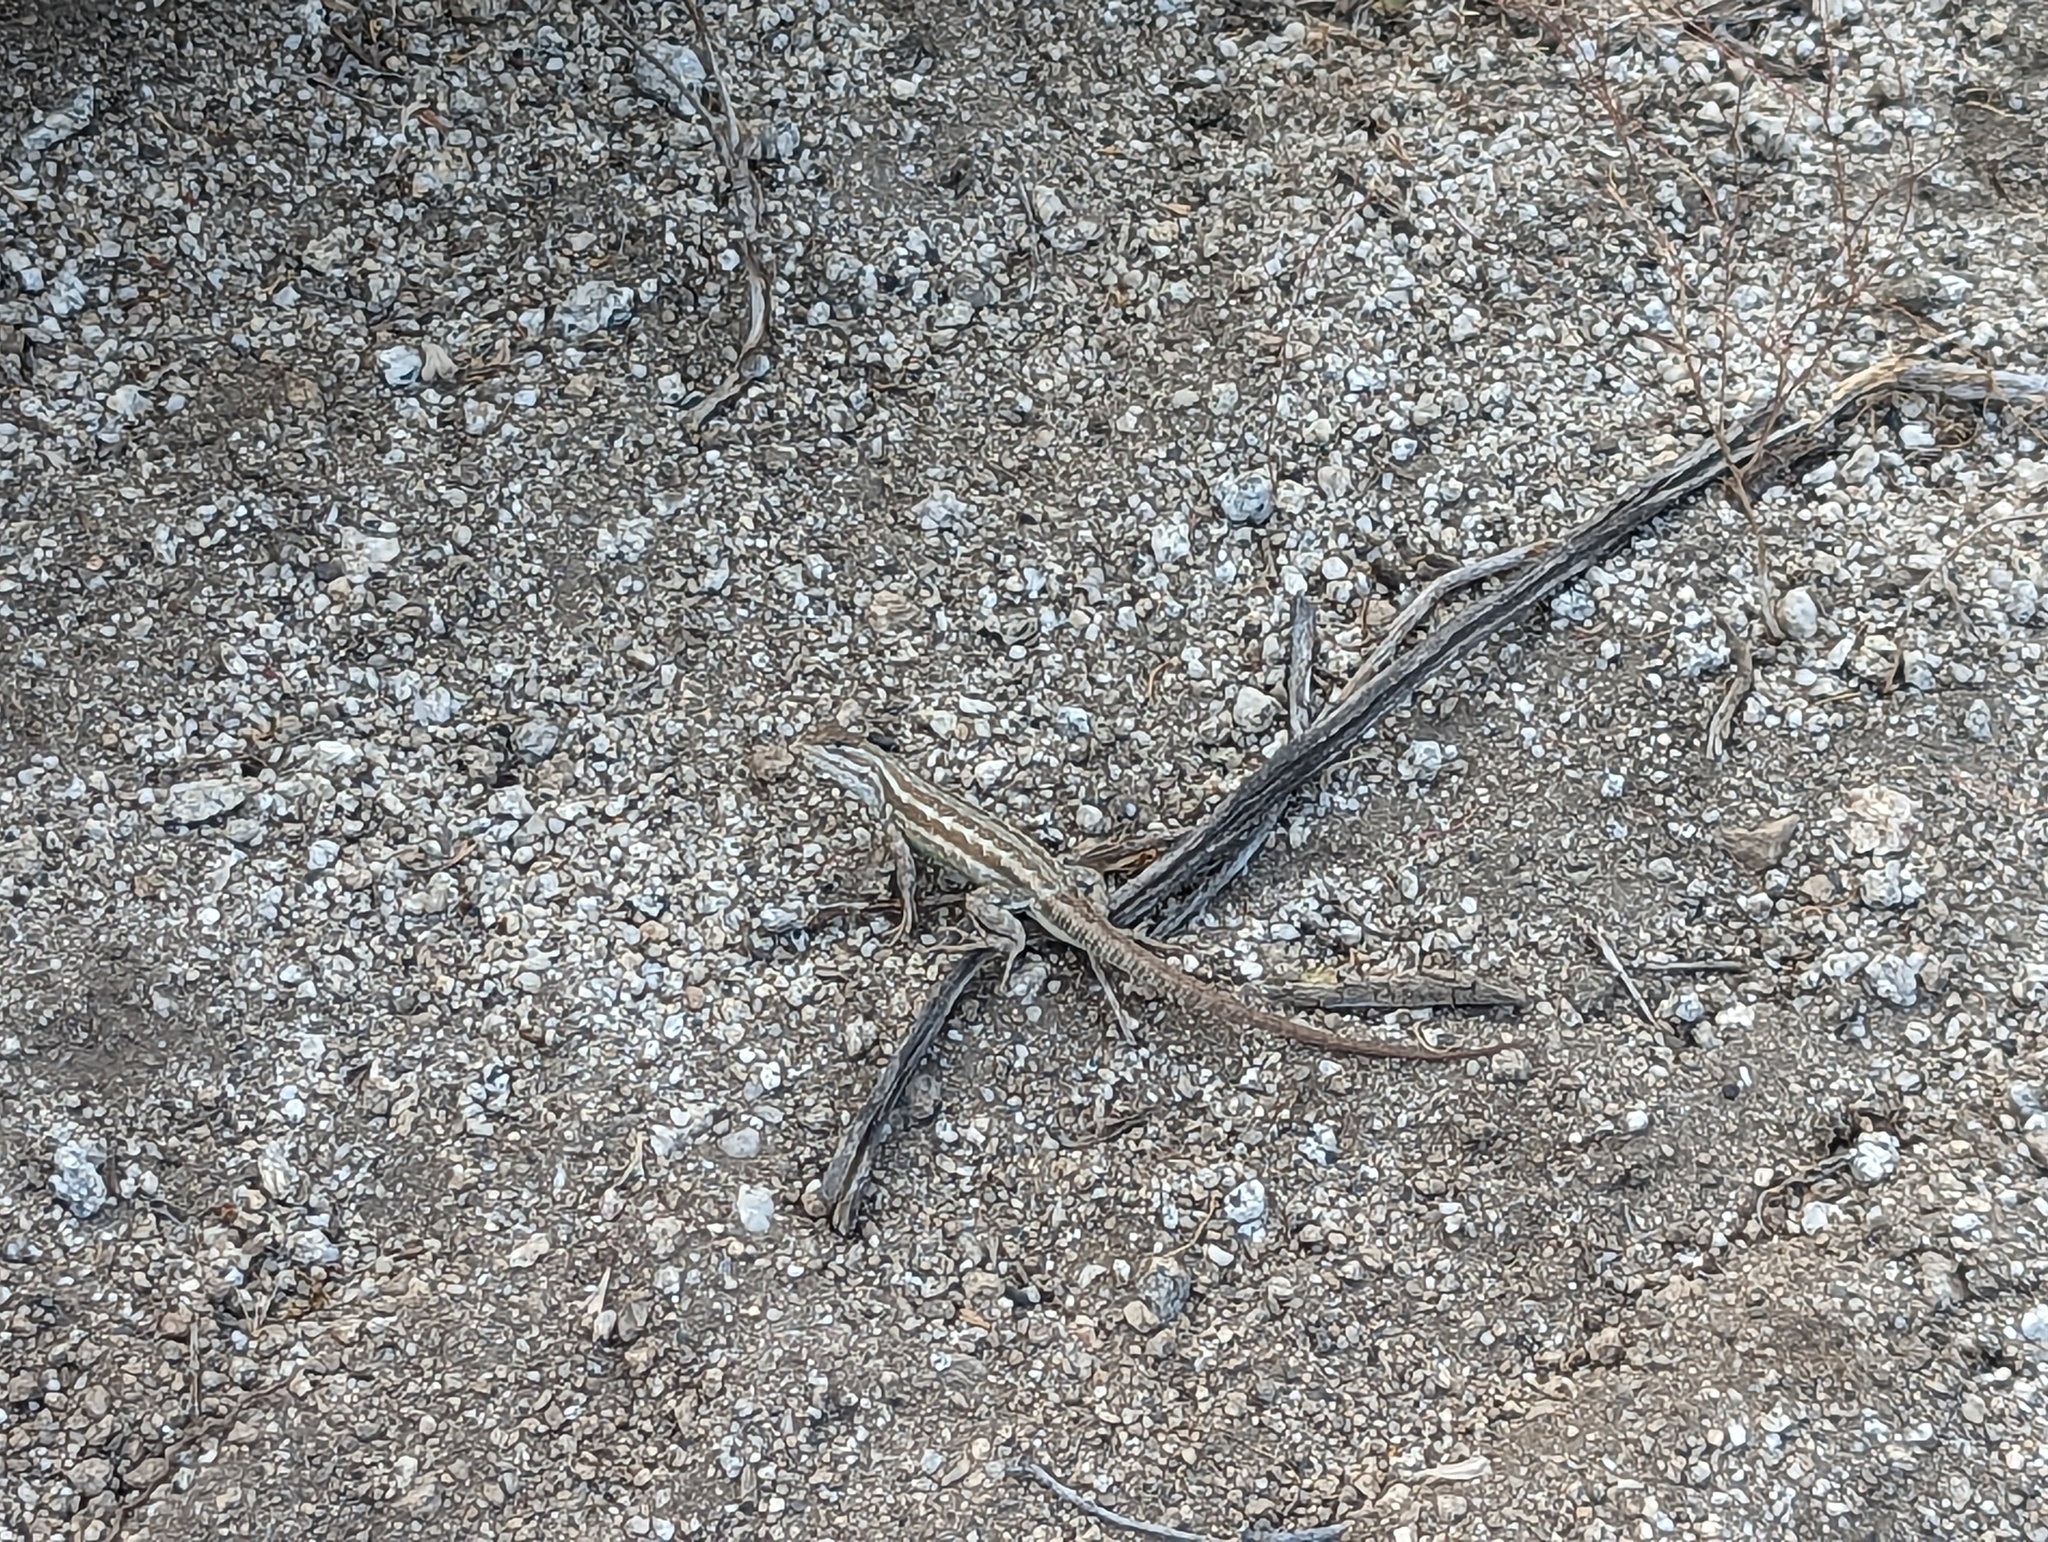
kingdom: Animalia
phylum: Chordata
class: Squamata
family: Phrynosomatidae
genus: Sceloporus
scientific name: Sceloporus graciosus
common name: Sagebrush lizard
